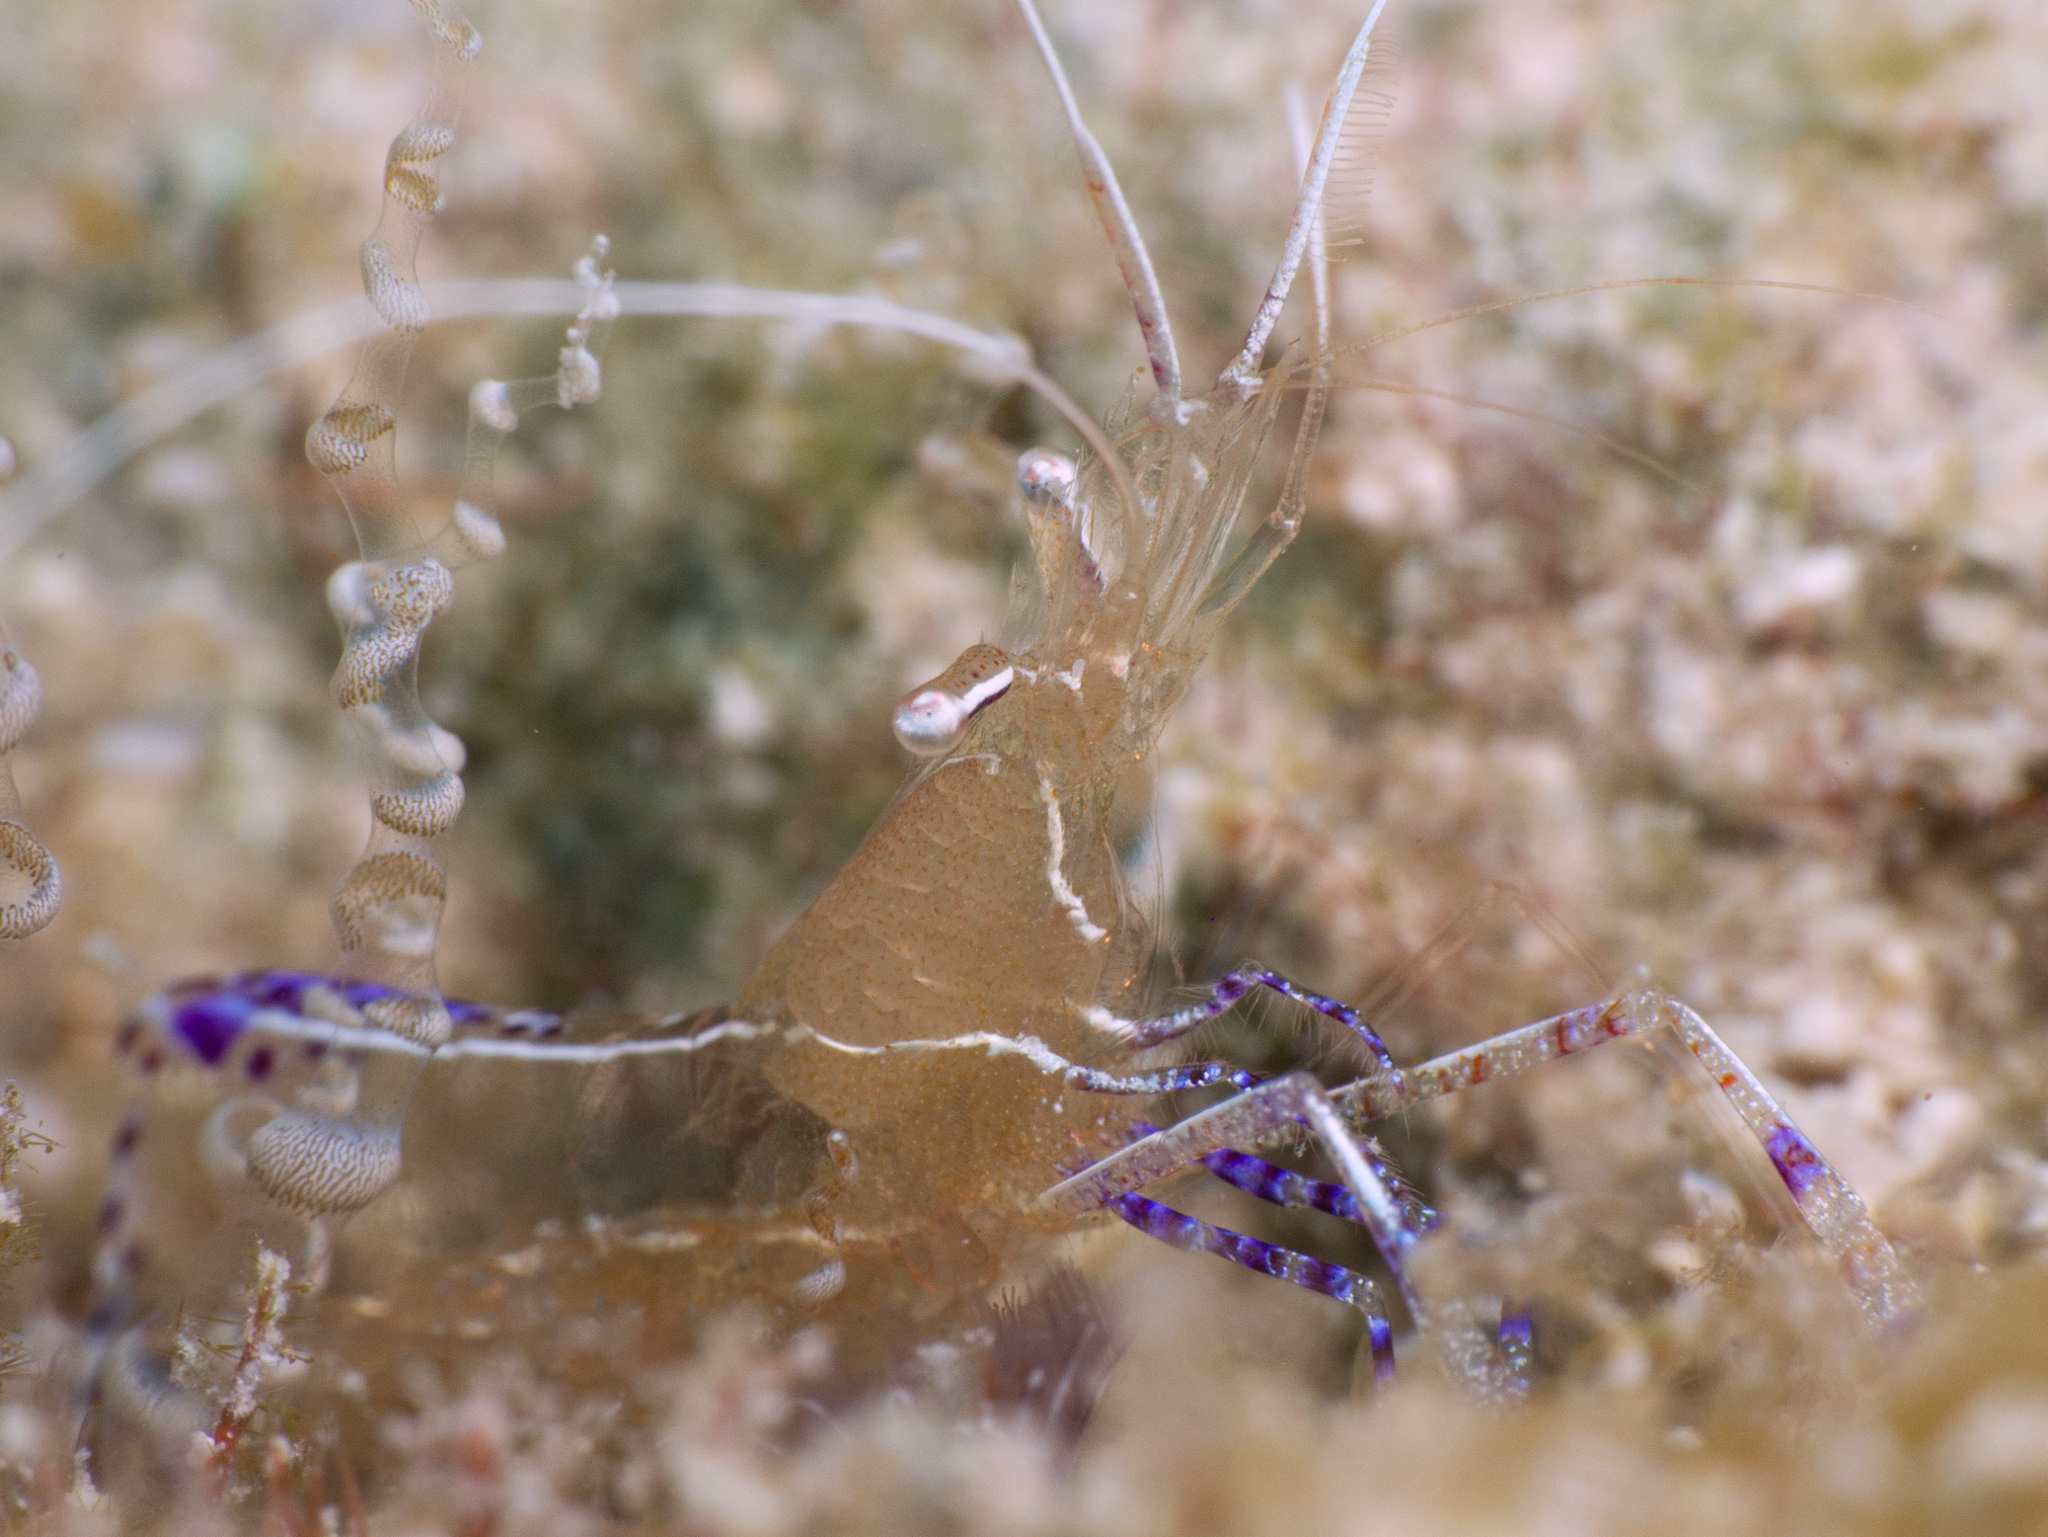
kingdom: Animalia
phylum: Arthropoda
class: Malacostraca
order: Decapoda
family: Palaemonidae
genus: Ancylomenes
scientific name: Ancylomenes pedersoni
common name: Pederson's cleaning shrimp
